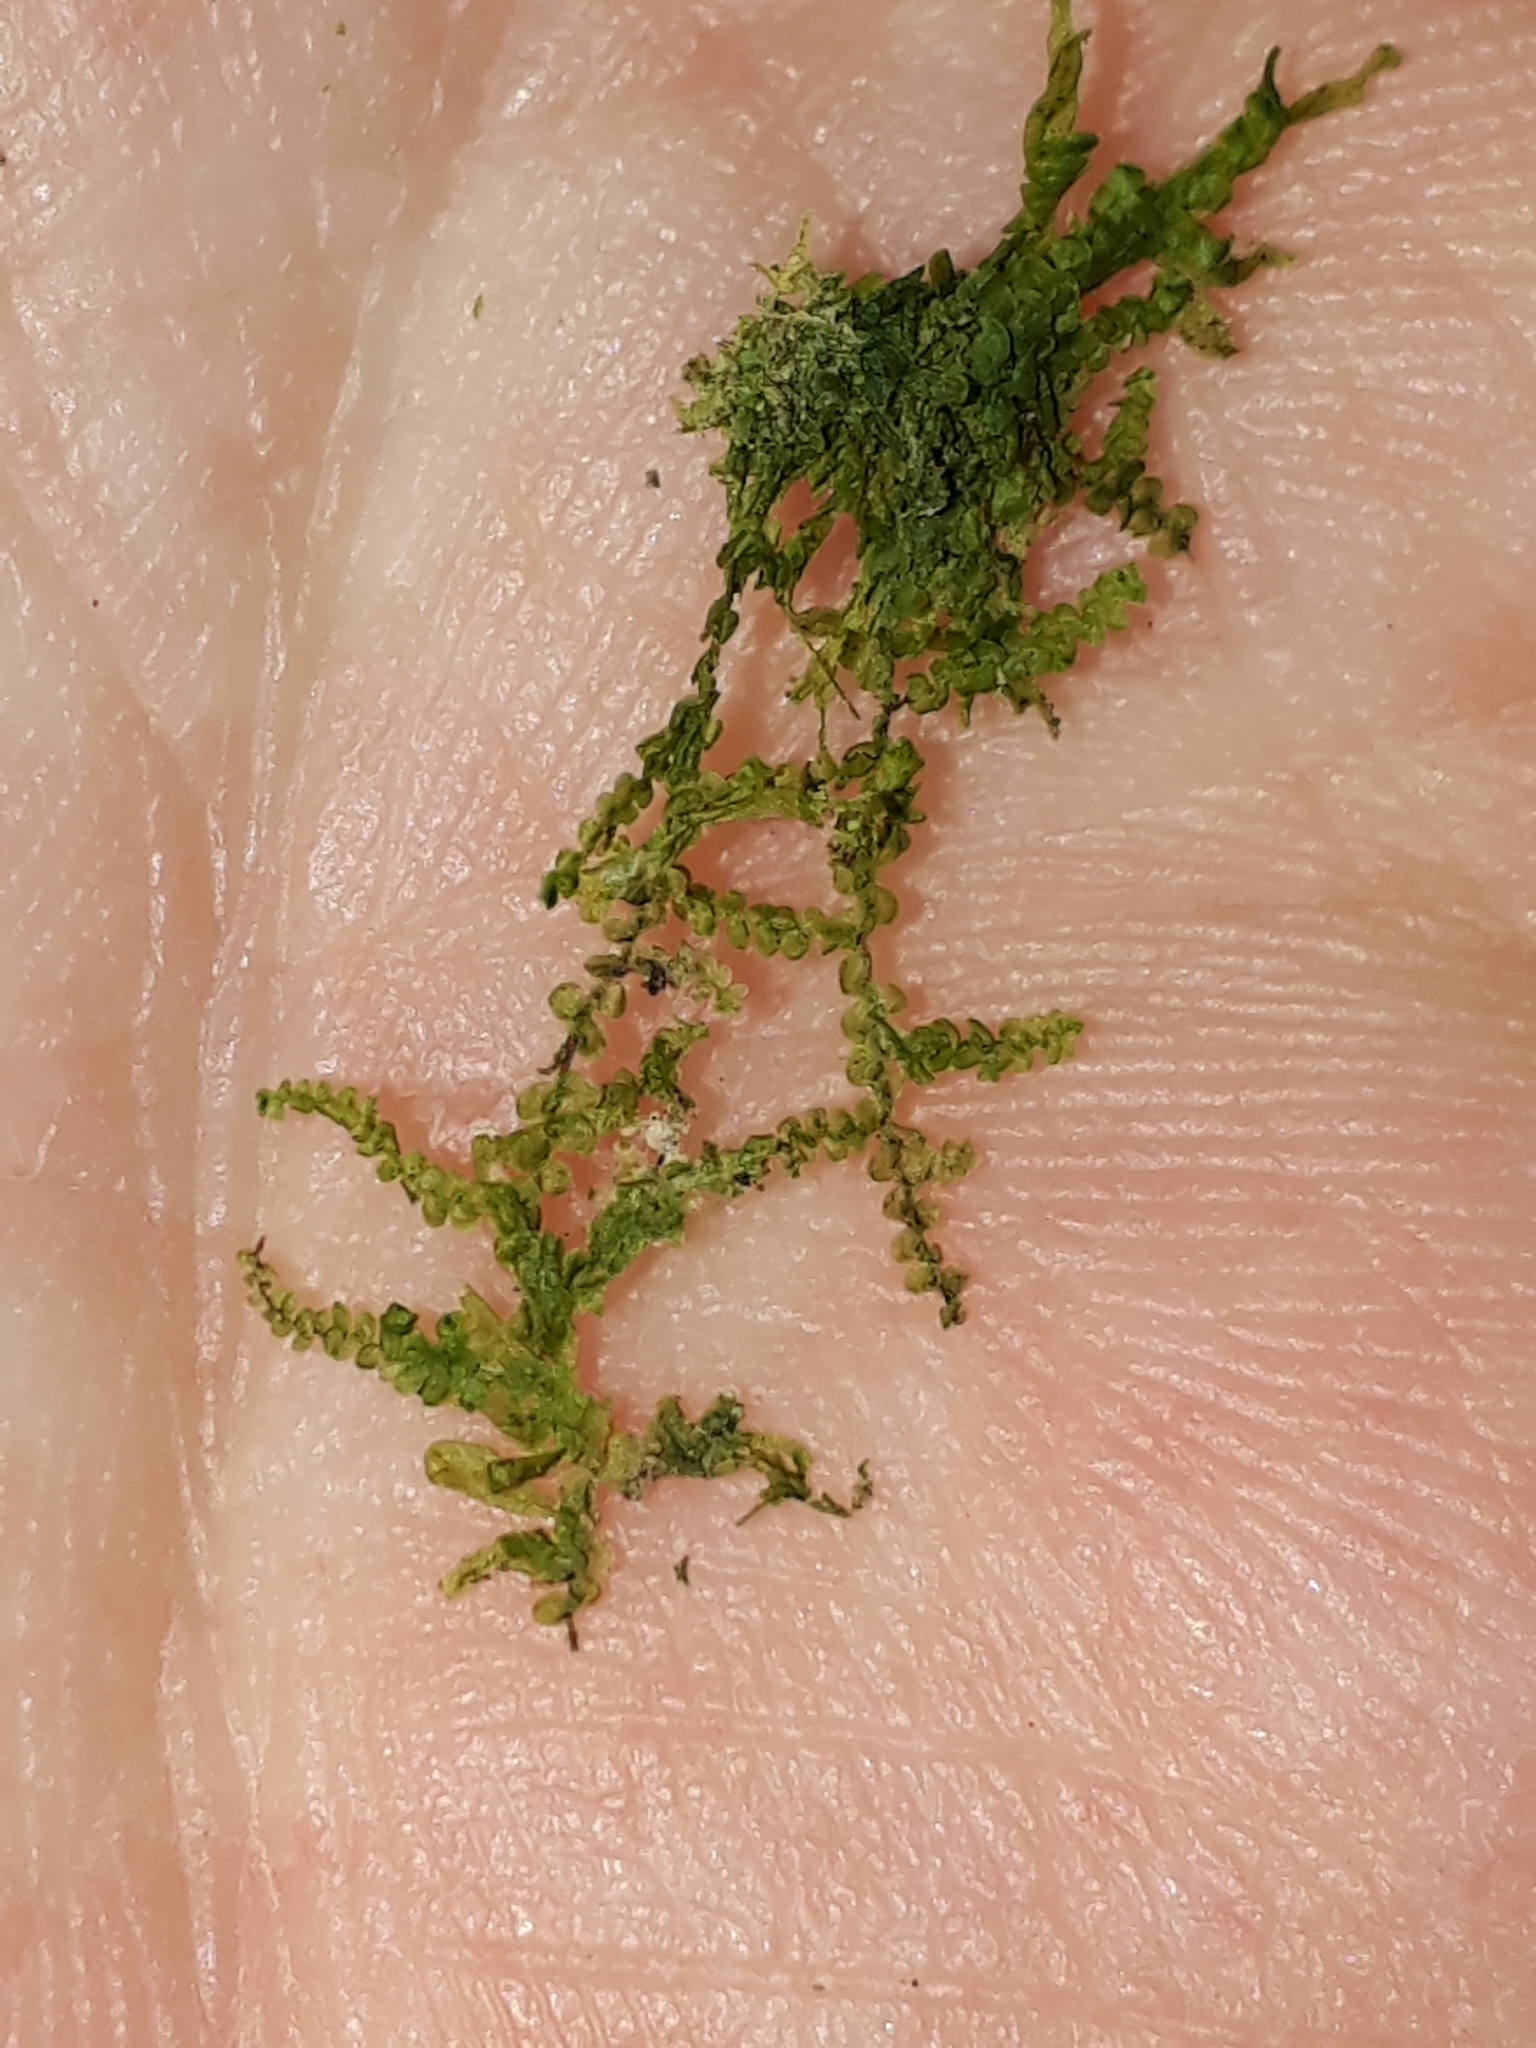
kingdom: Plantae
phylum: Marchantiophyta
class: Jungermanniopsida
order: Porellales
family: Lejeuneaceae
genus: Lejeunea
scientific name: Lejeunea hodgsoniana
